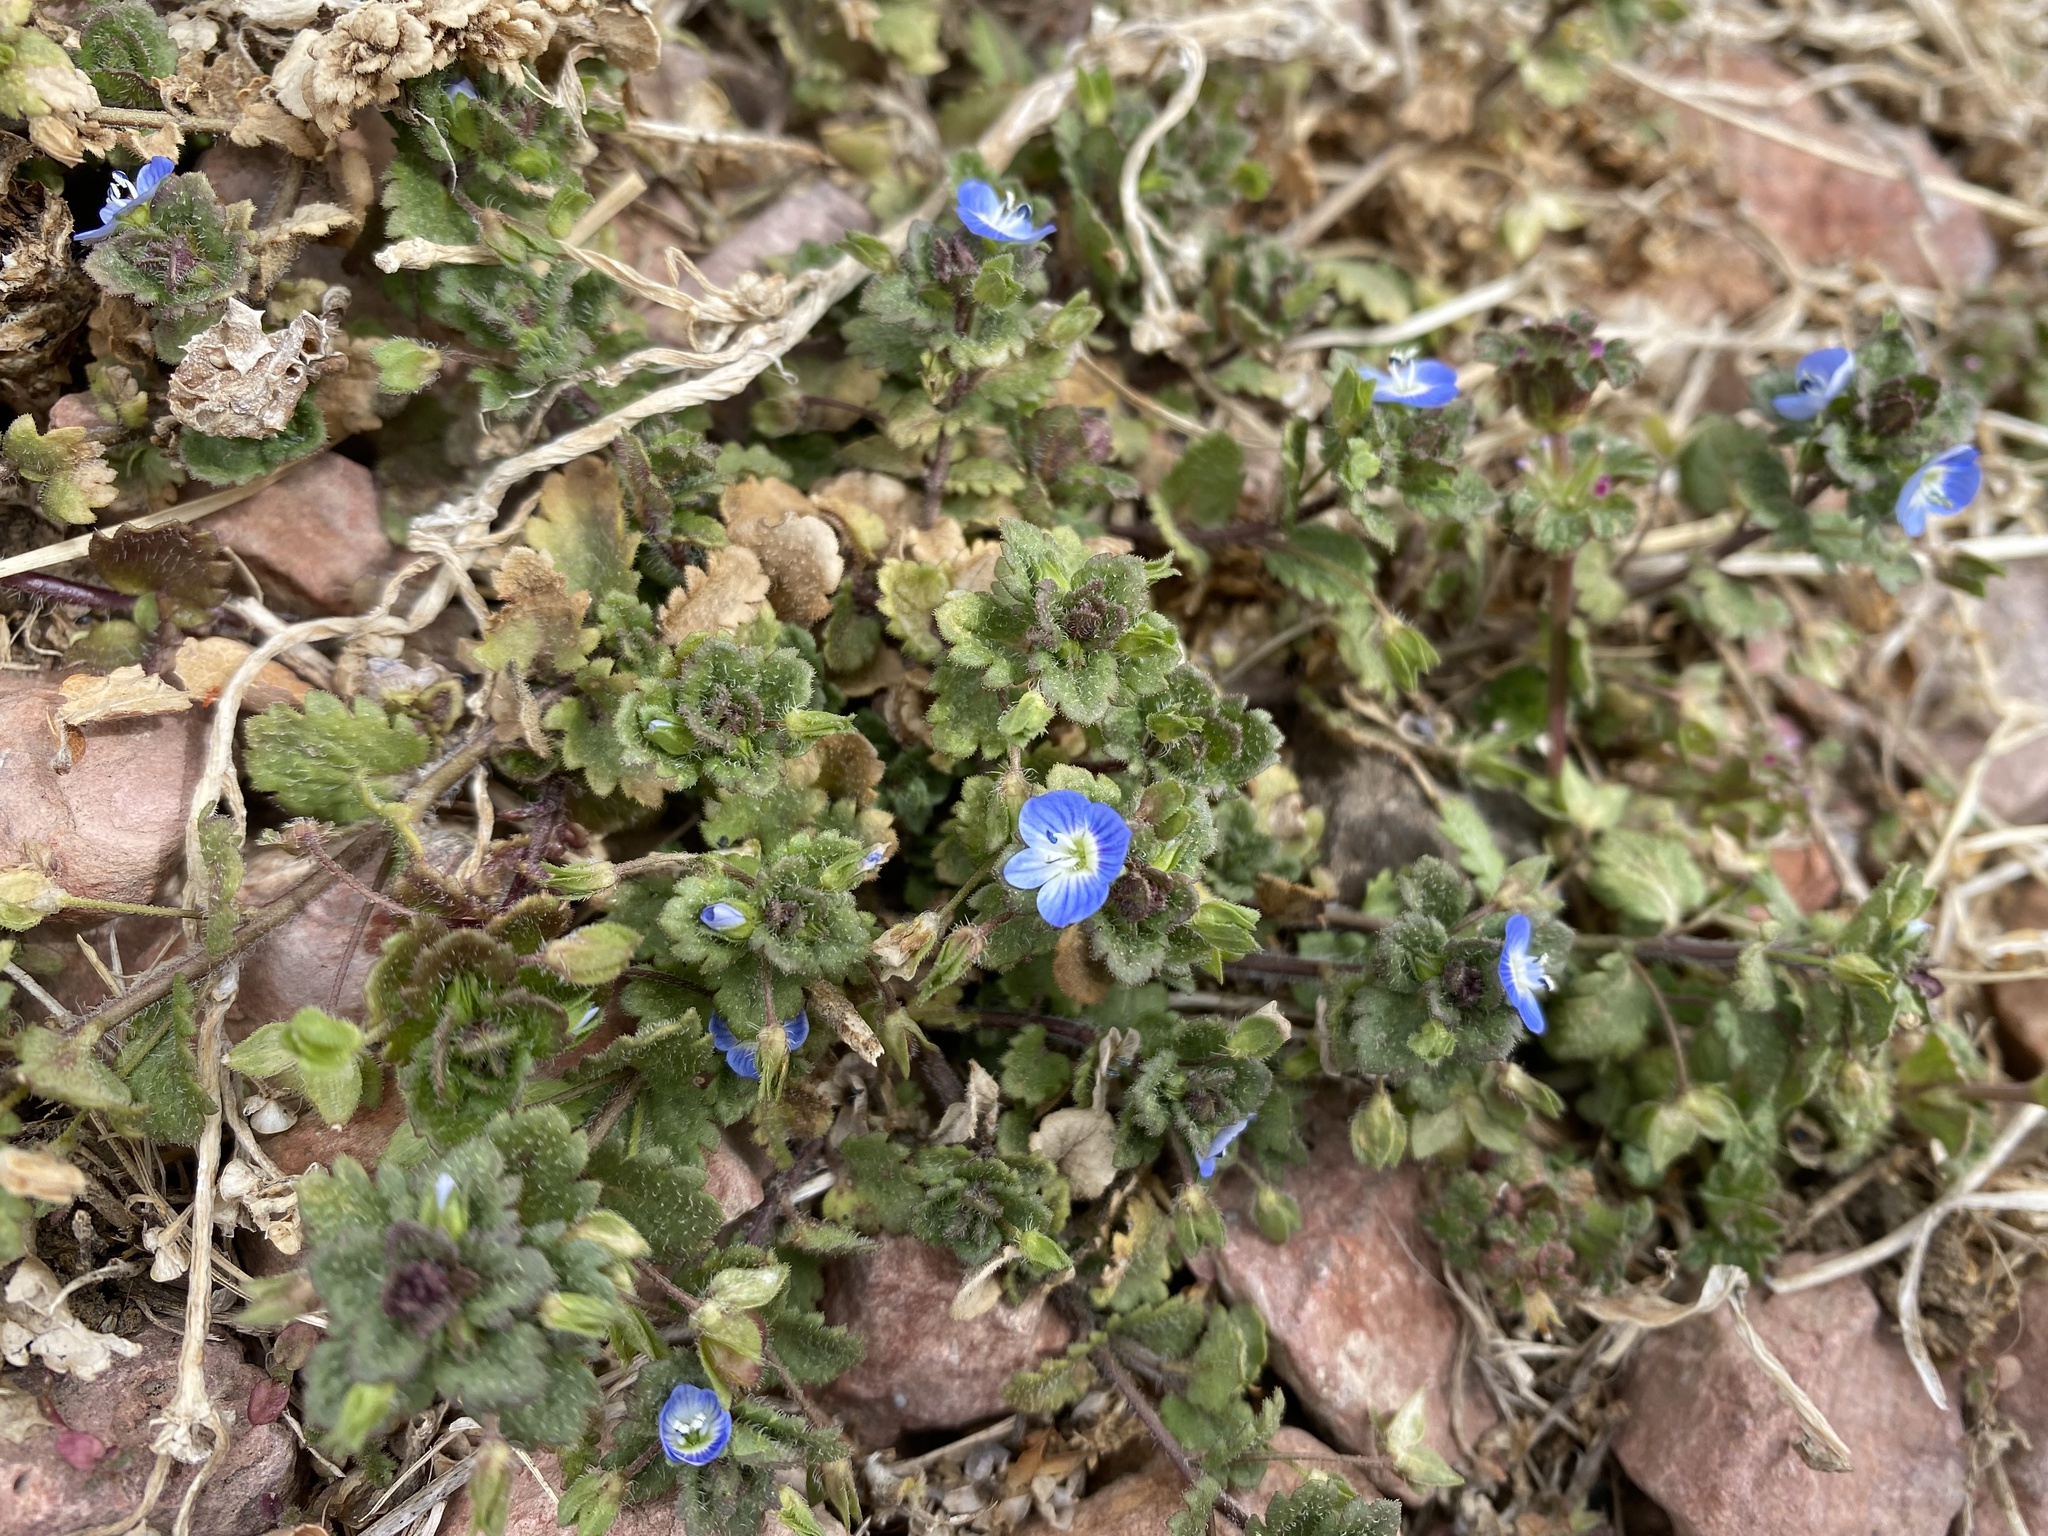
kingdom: Plantae
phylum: Tracheophyta
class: Magnoliopsida
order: Lamiales
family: Plantaginaceae
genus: Veronica
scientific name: Veronica polita
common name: Grey field-speedwell
